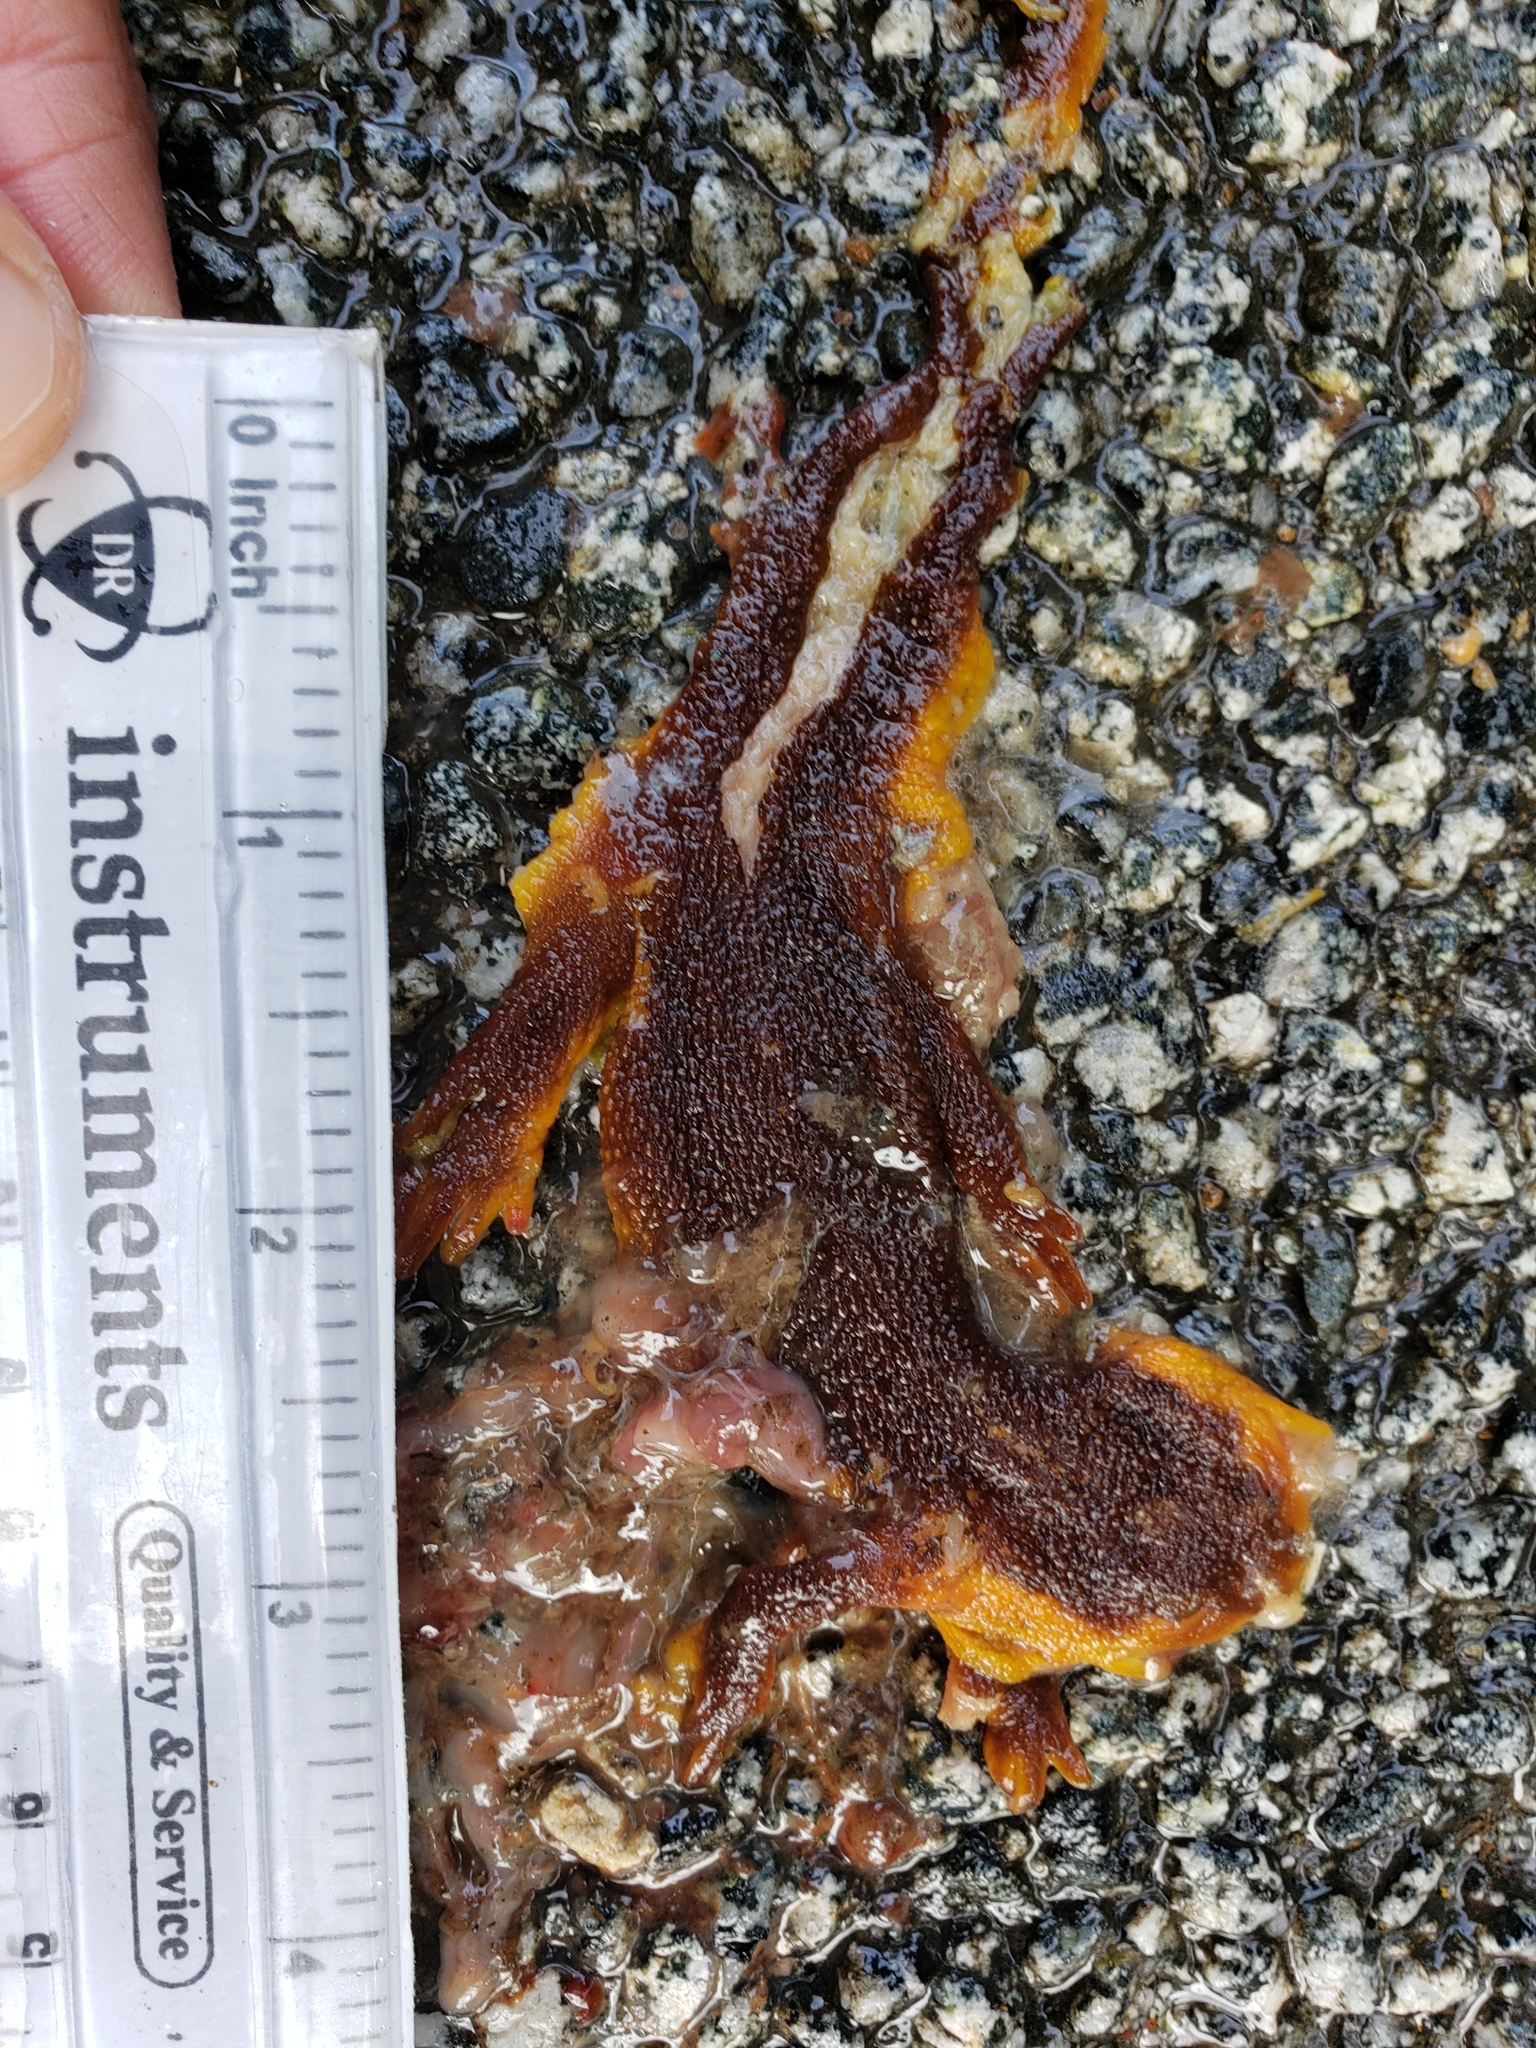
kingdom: Animalia
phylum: Chordata
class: Amphibia
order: Caudata
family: Salamandridae
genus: Taricha
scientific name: Taricha
